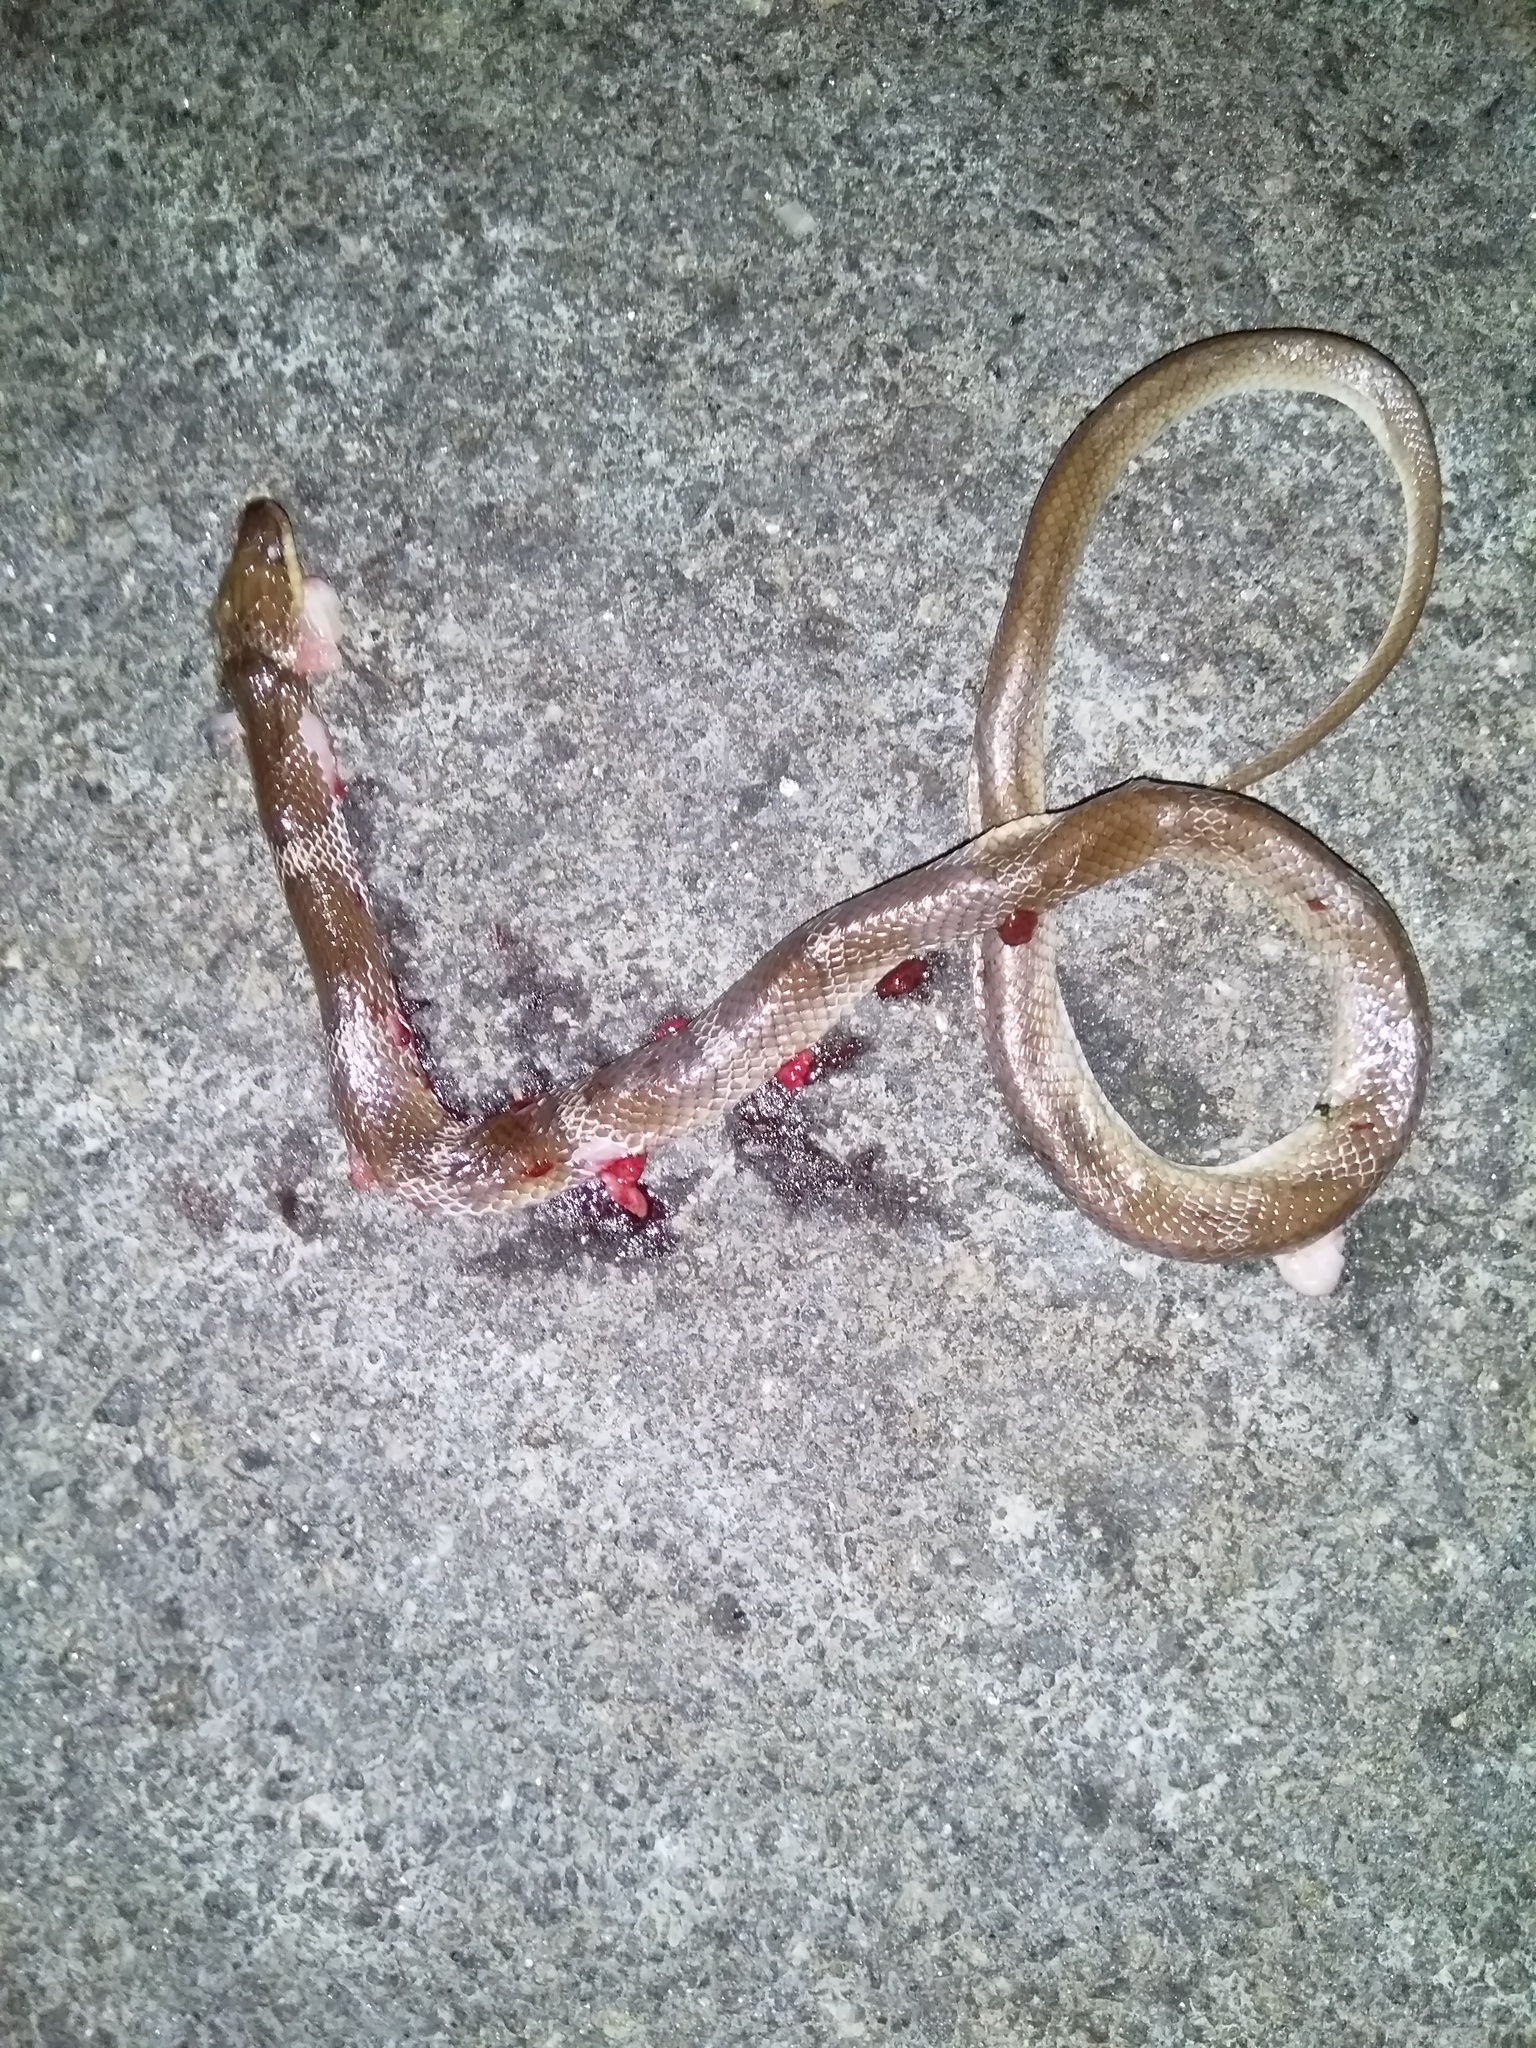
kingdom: Animalia
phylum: Chordata
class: Squamata
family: Colubridae
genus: Lycodon
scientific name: Lycodon aulicus
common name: Common wolf snake
